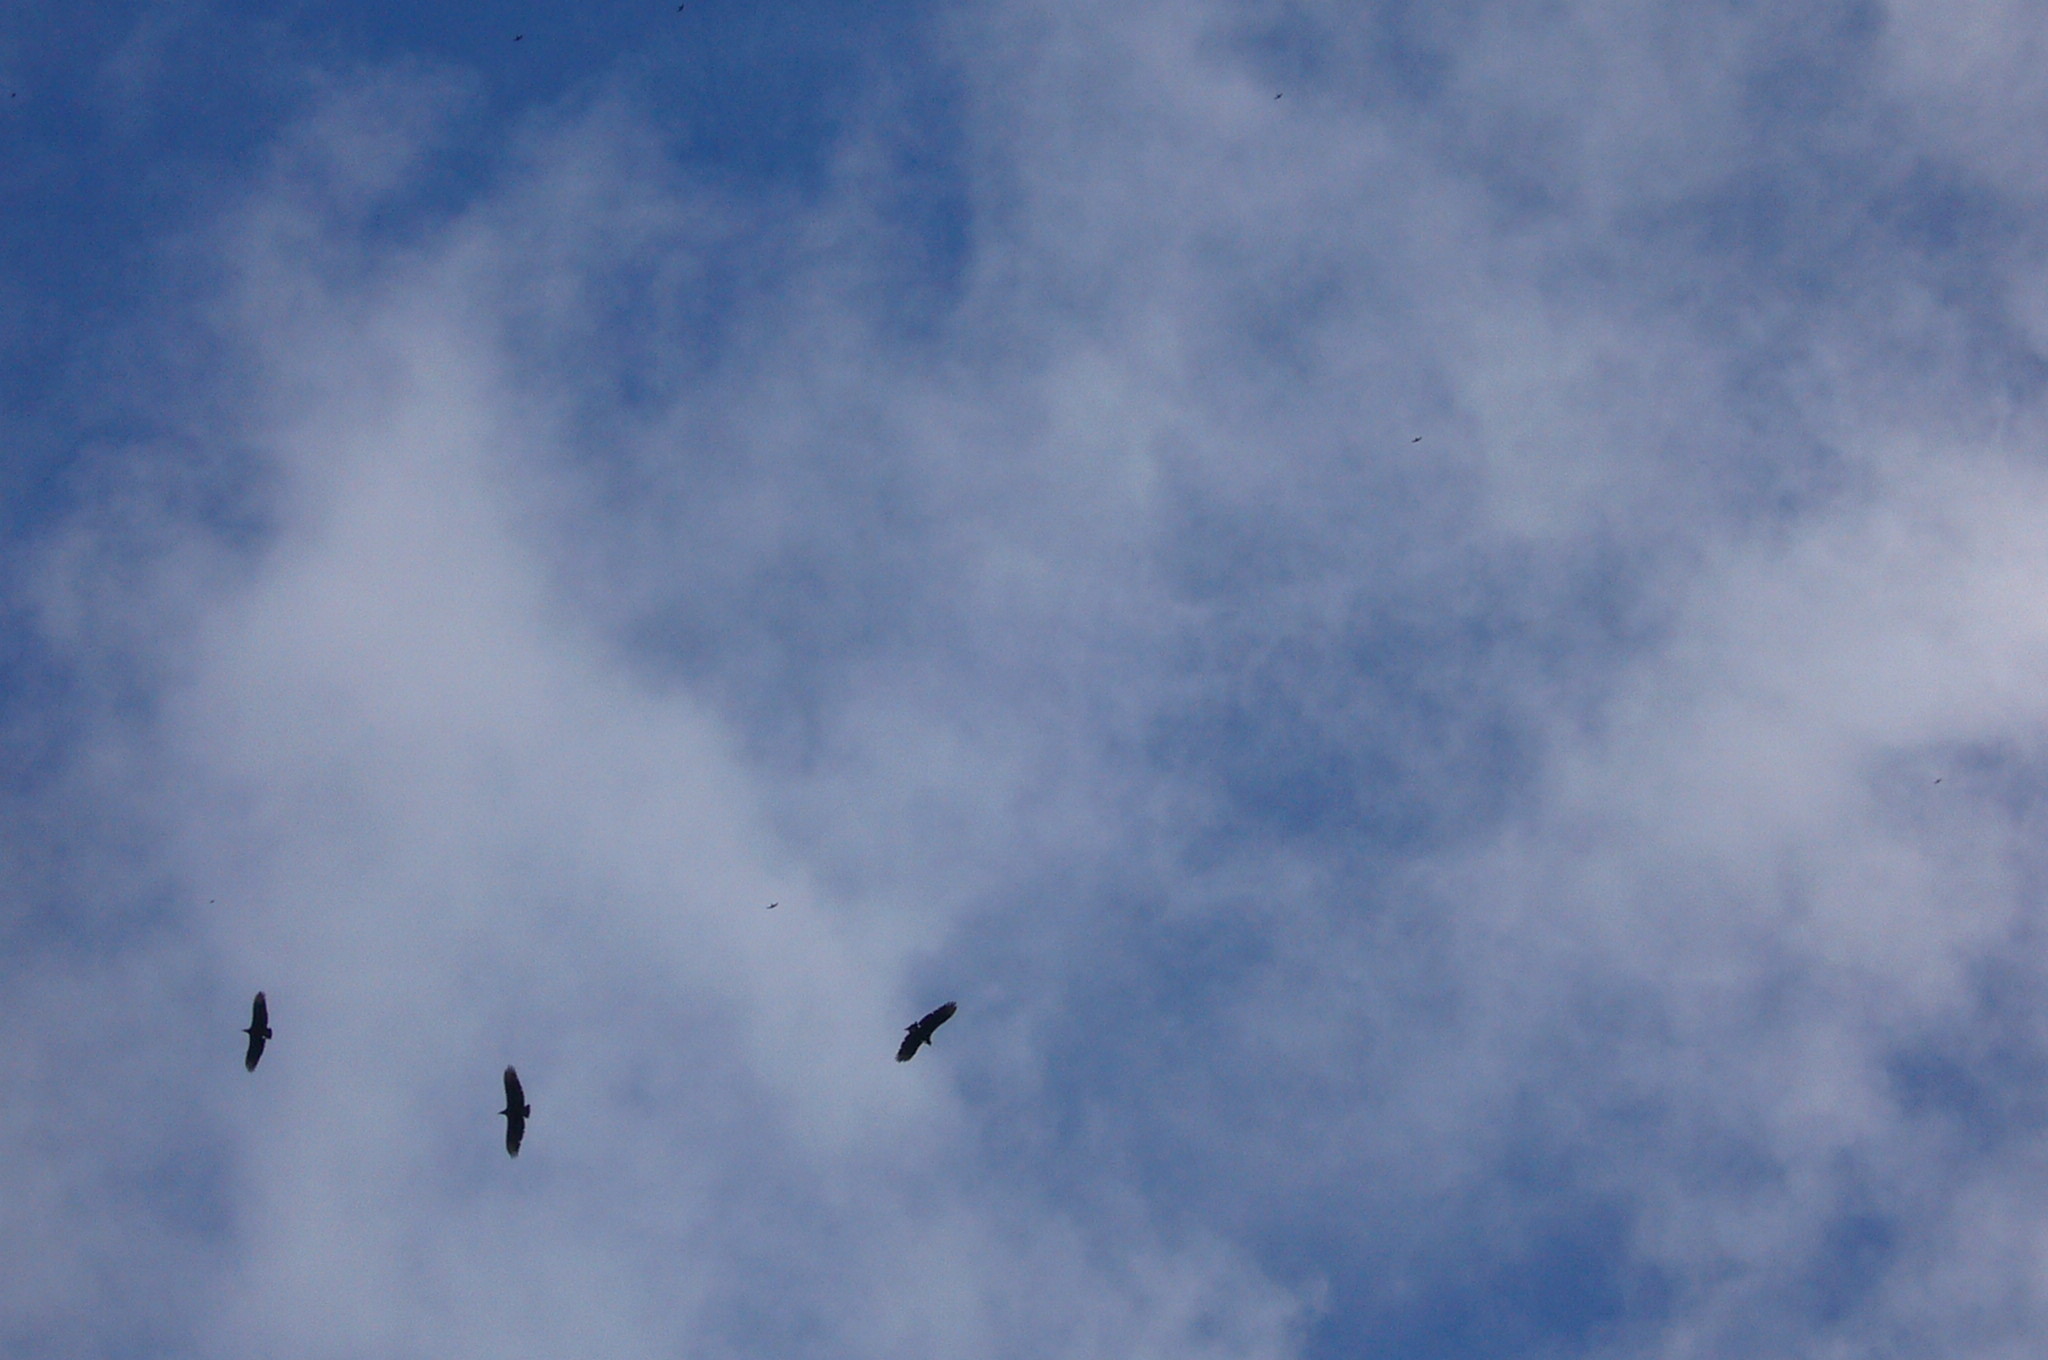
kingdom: Animalia
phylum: Chordata
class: Aves
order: Accipitriformes
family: Cathartidae
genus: Coragyps
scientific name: Coragyps atratus
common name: Black vulture
